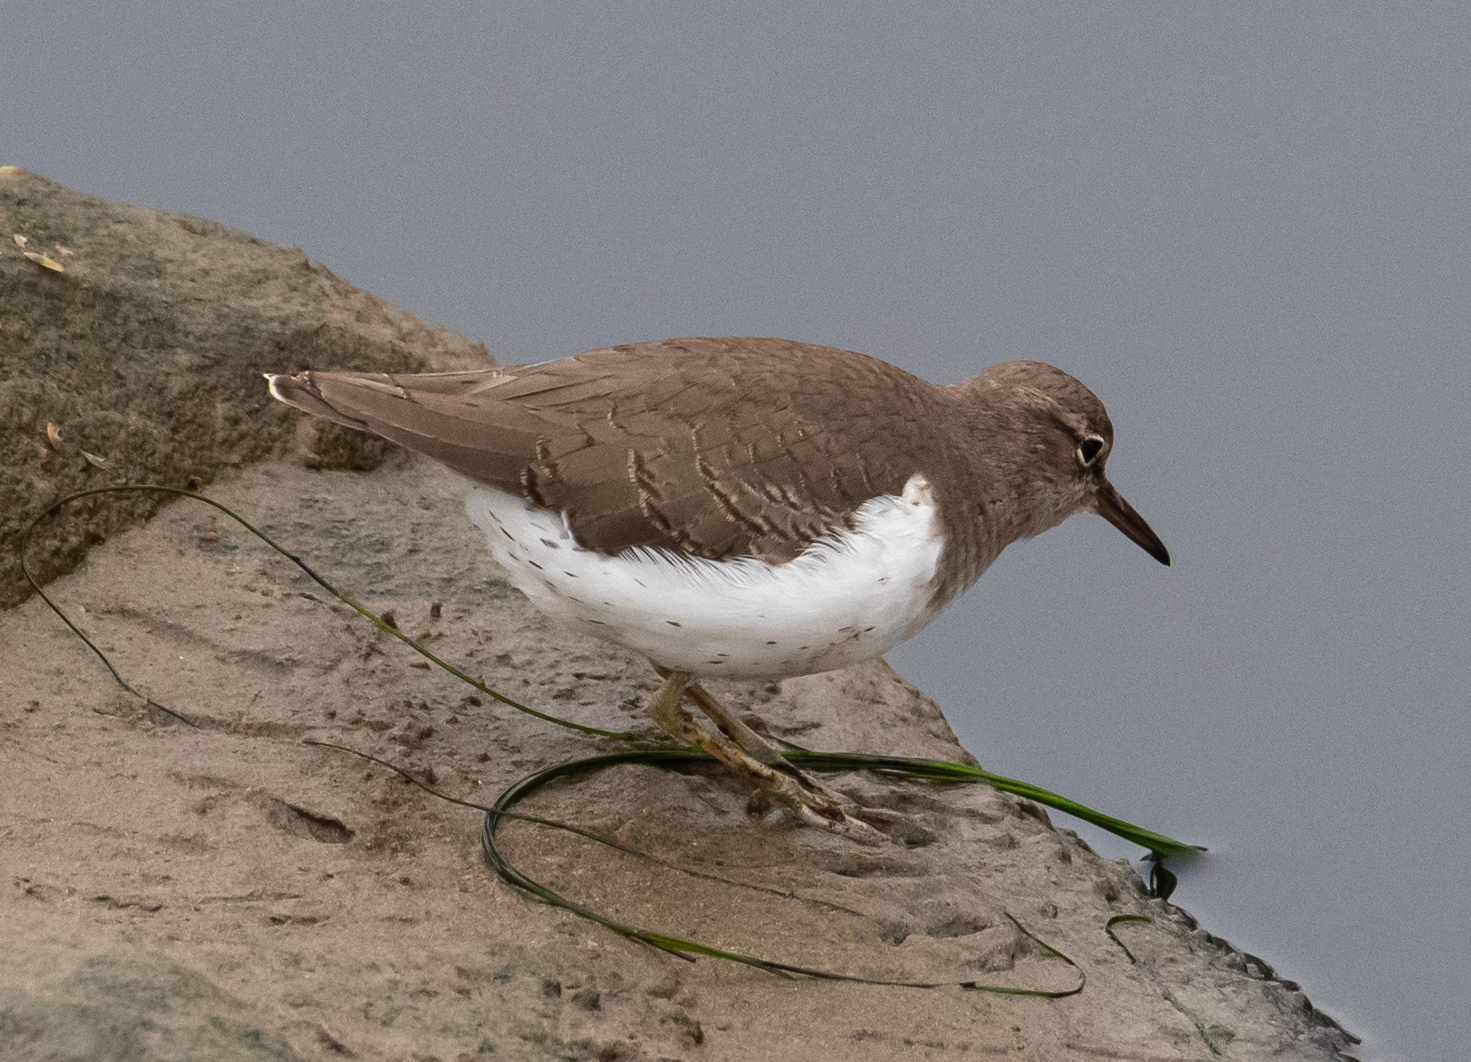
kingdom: Animalia
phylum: Chordata
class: Aves
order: Charadriiformes
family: Scolopacidae
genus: Actitis
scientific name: Actitis macularius
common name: Spotted sandpiper
